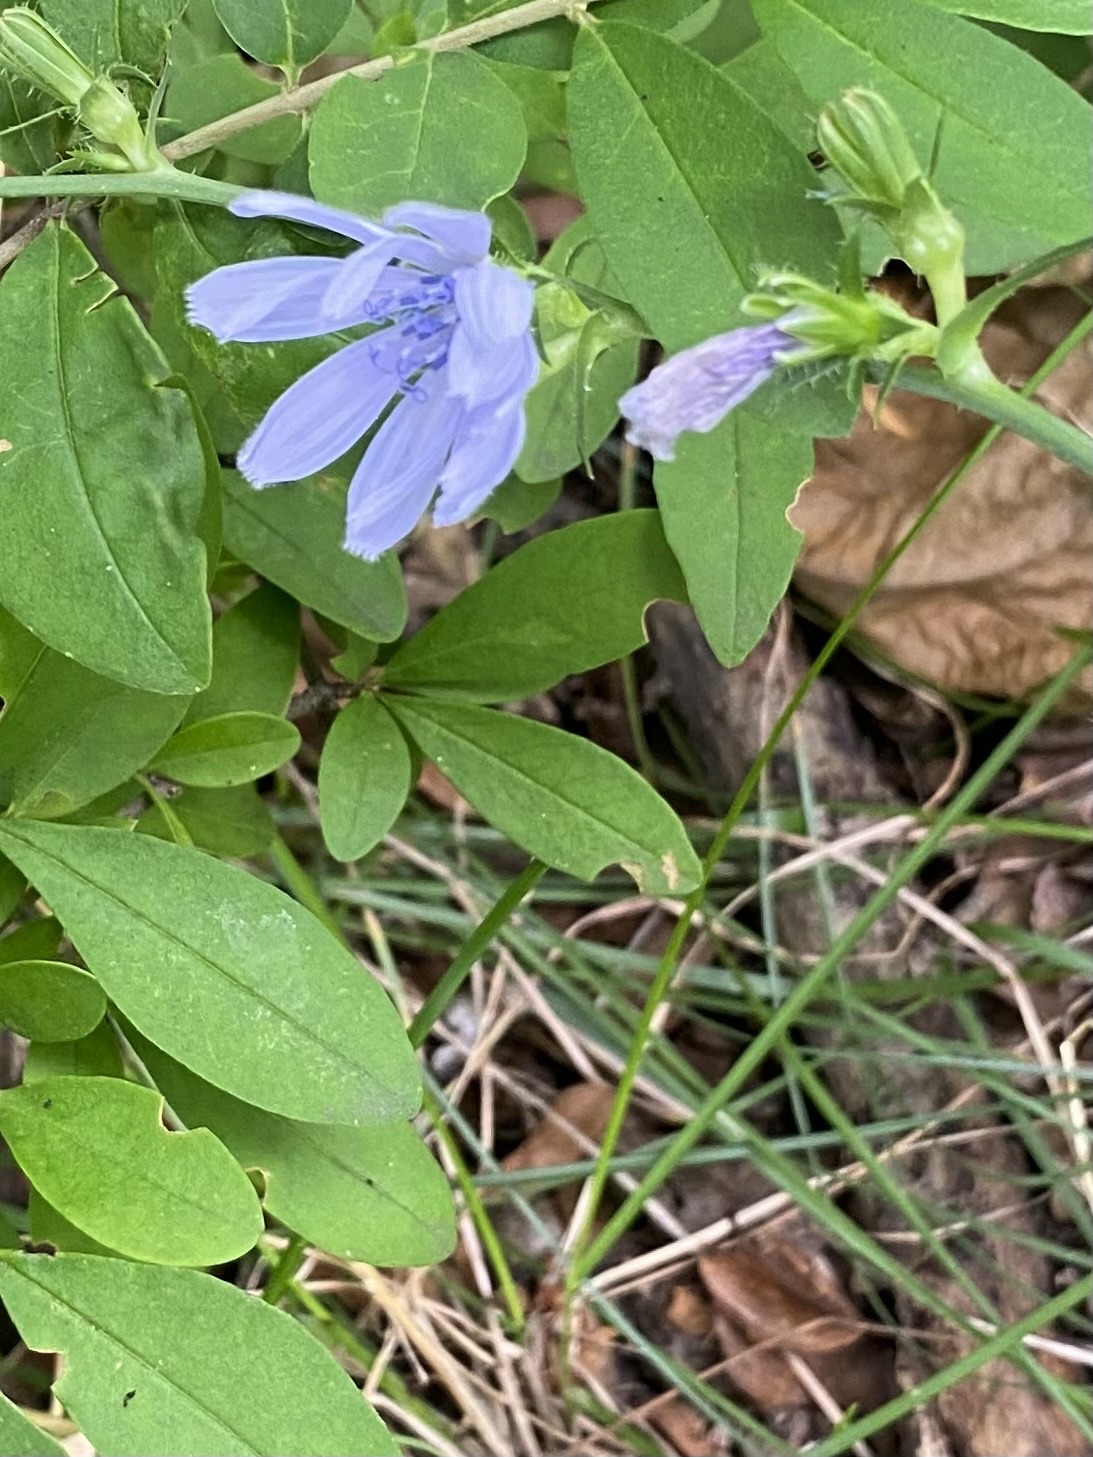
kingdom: Plantae
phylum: Tracheophyta
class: Magnoliopsida
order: Asterales
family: Asteraceae
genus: Cichorium
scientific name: Cichorium intybus
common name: Chicory
